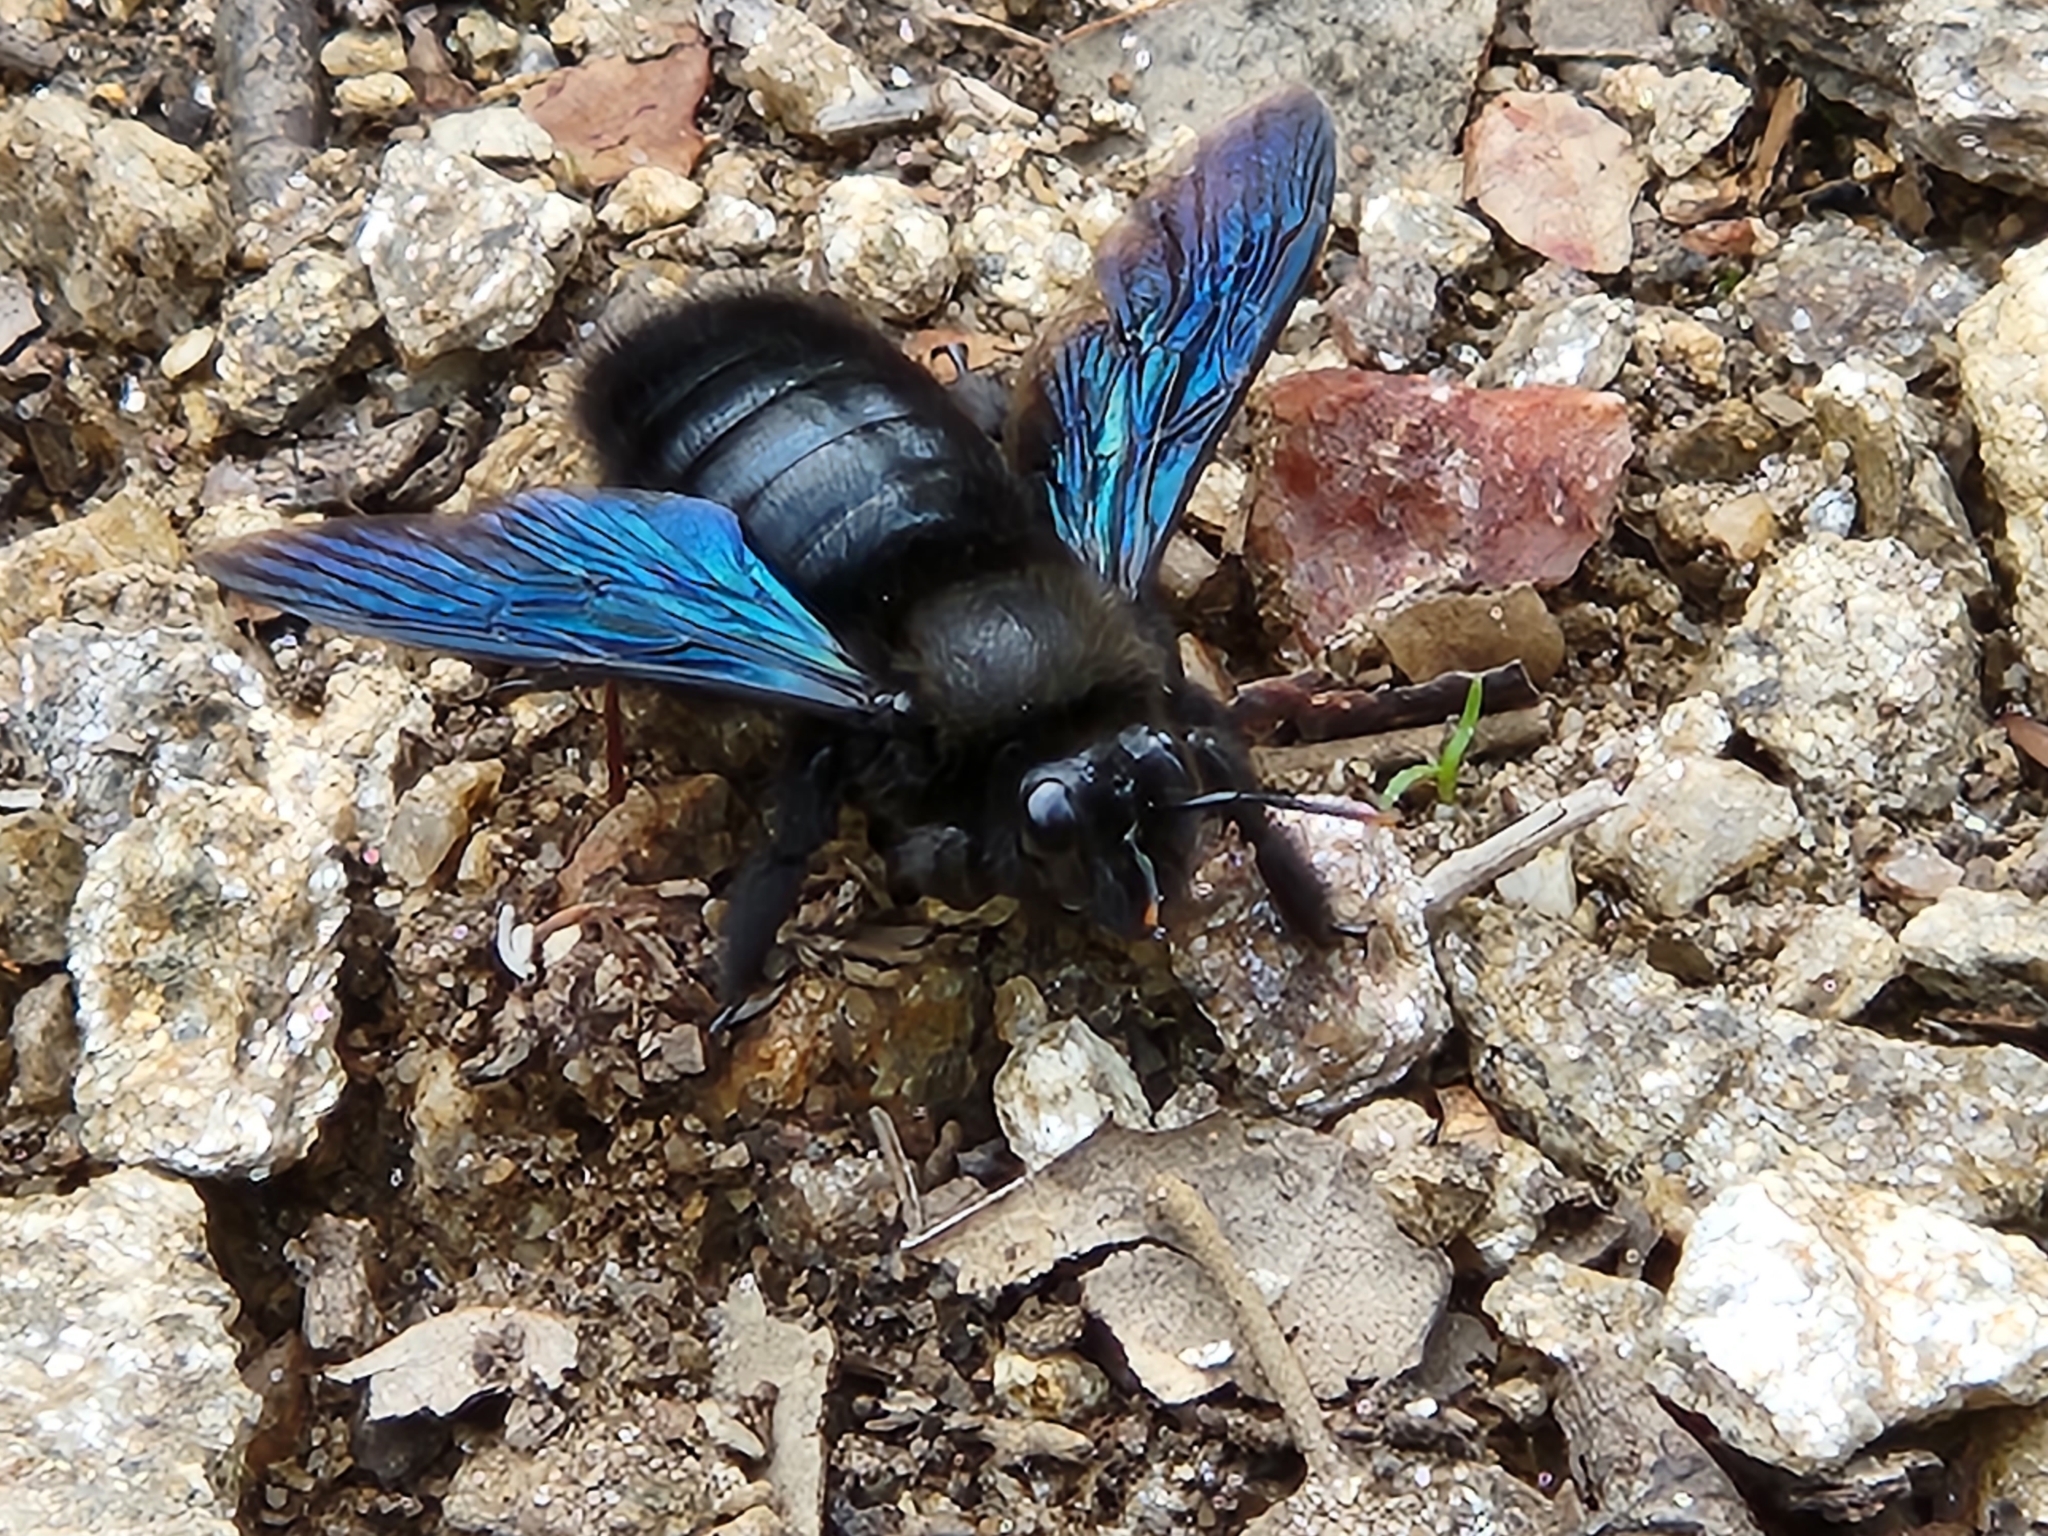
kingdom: Animalia
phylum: Arthropoda
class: Insecta
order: Hymenoptera
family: Apidae
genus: Xylocopa
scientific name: Xylocopa violacea
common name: Violet carpenter bee
